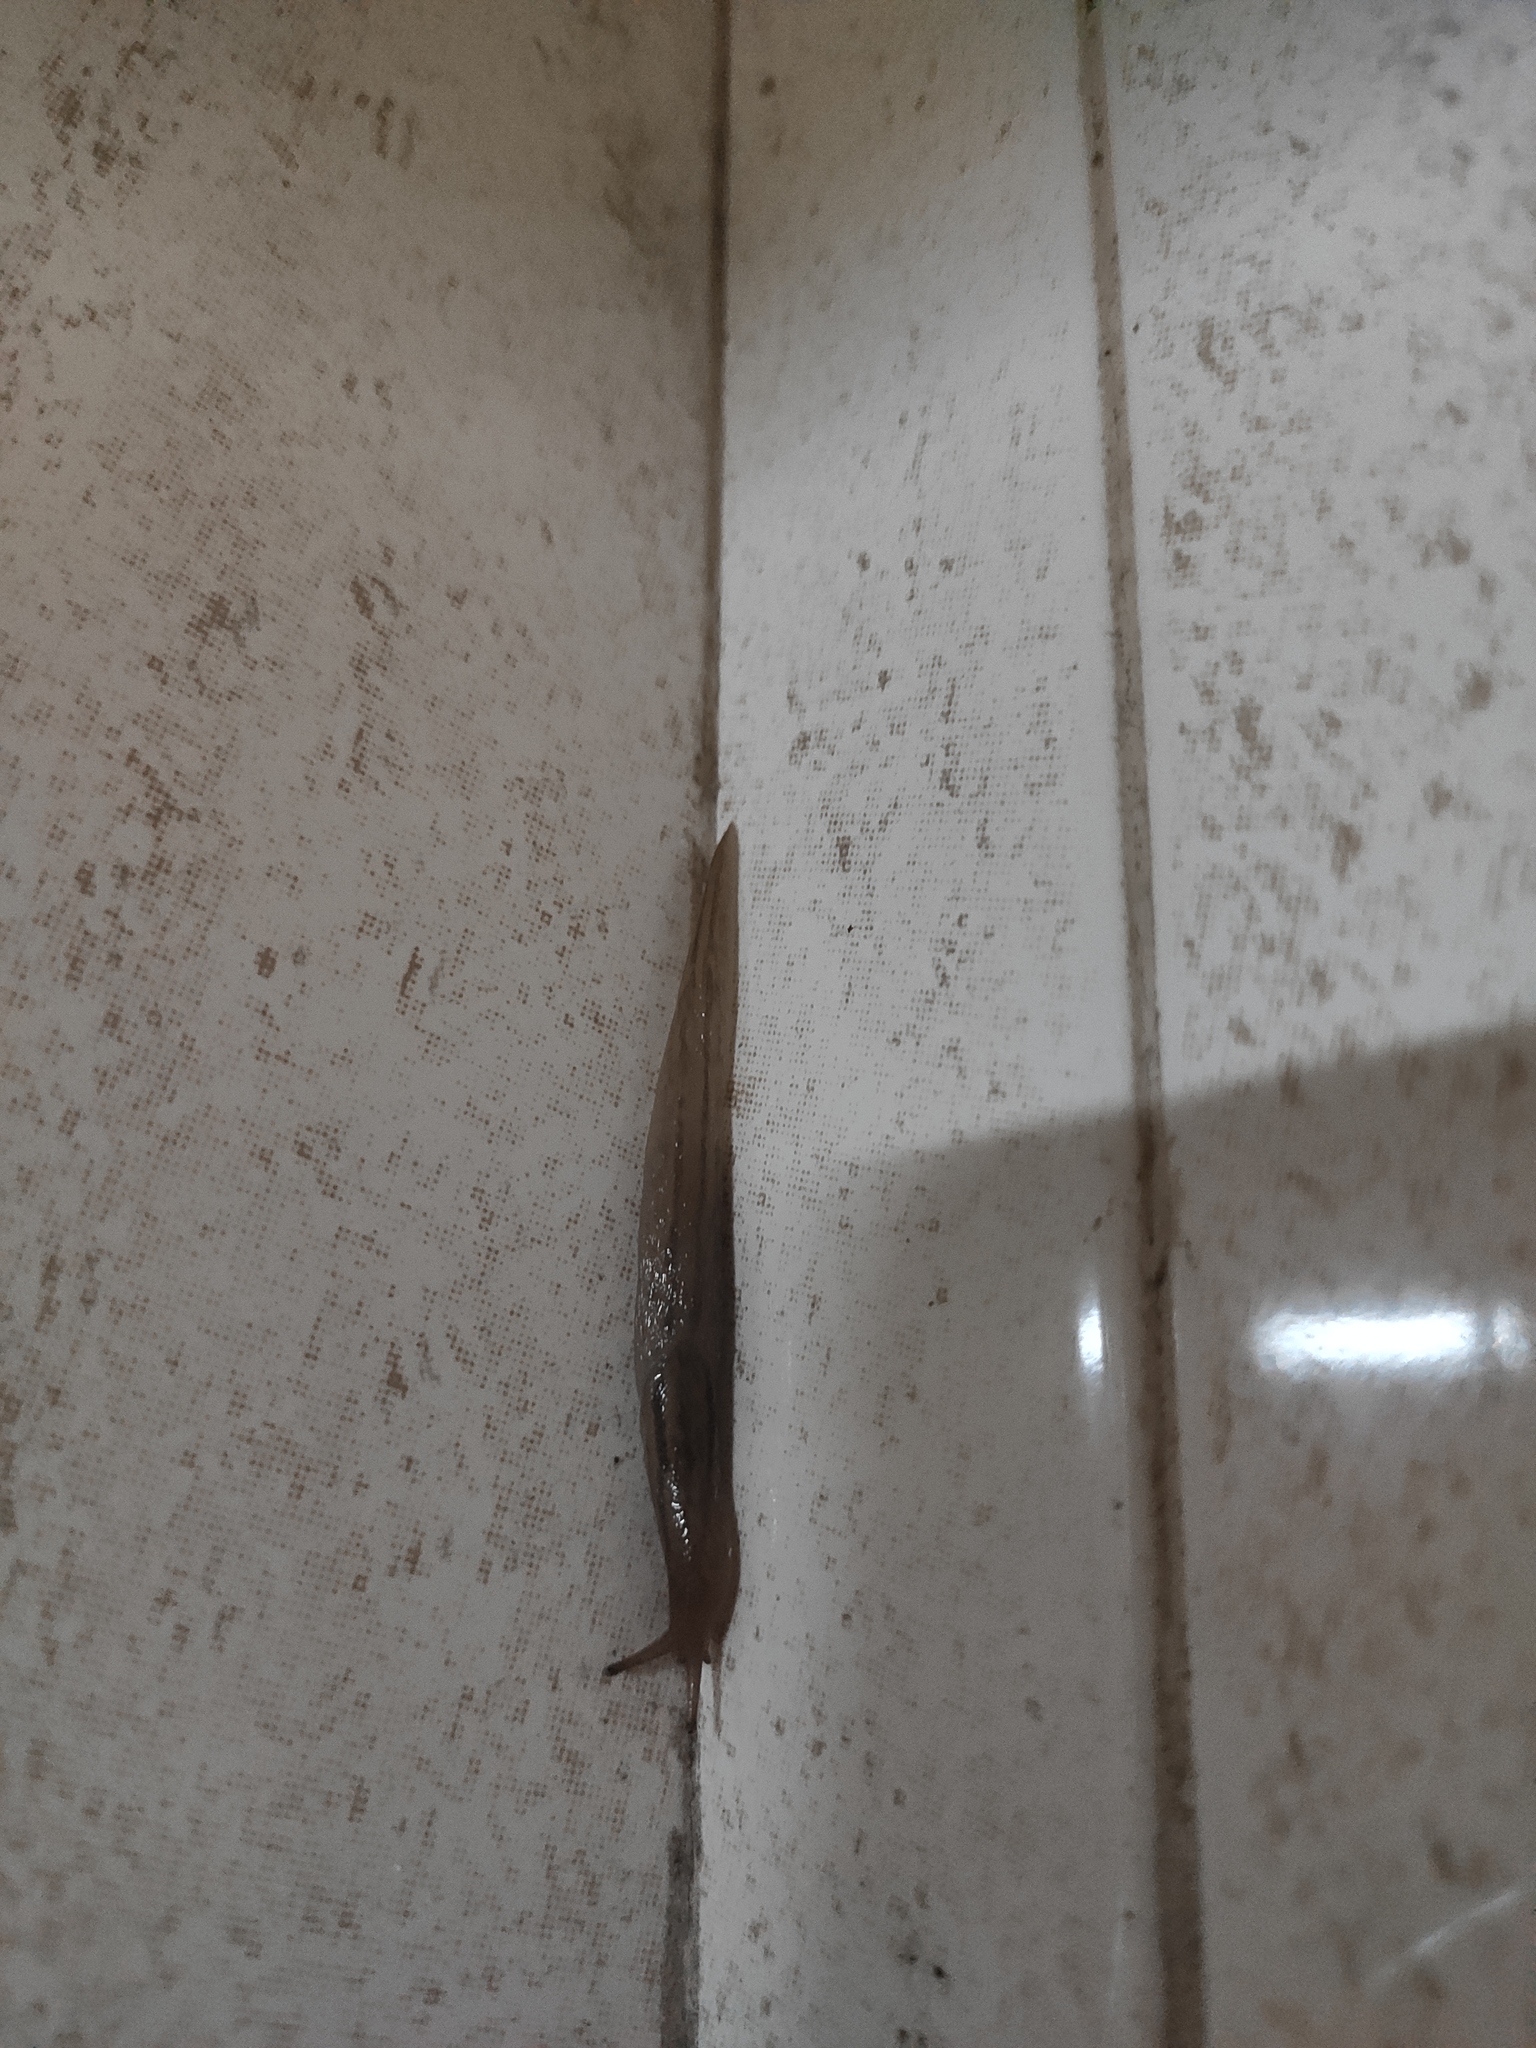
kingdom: Animalia
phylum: Mollusca
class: Gastropoda
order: Stylommatophora
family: Limacidae
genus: Ambigolimax
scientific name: Ambigolimax valentianus
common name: Greenhouse slug
